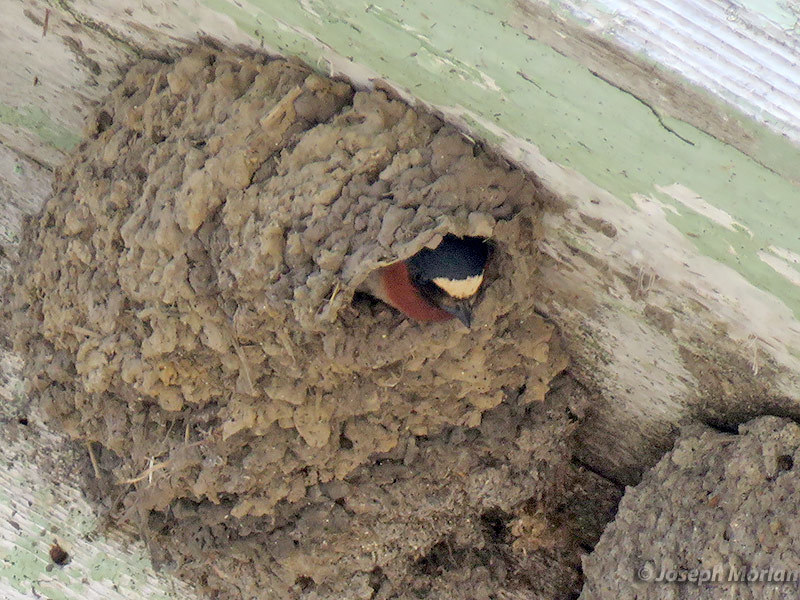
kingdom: Animalia
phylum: Chordata
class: Aves
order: Passeriformes
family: Hirundinidae
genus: Petrochelidon
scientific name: Petrochelidon pyrrhonota
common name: American cliff swallow
